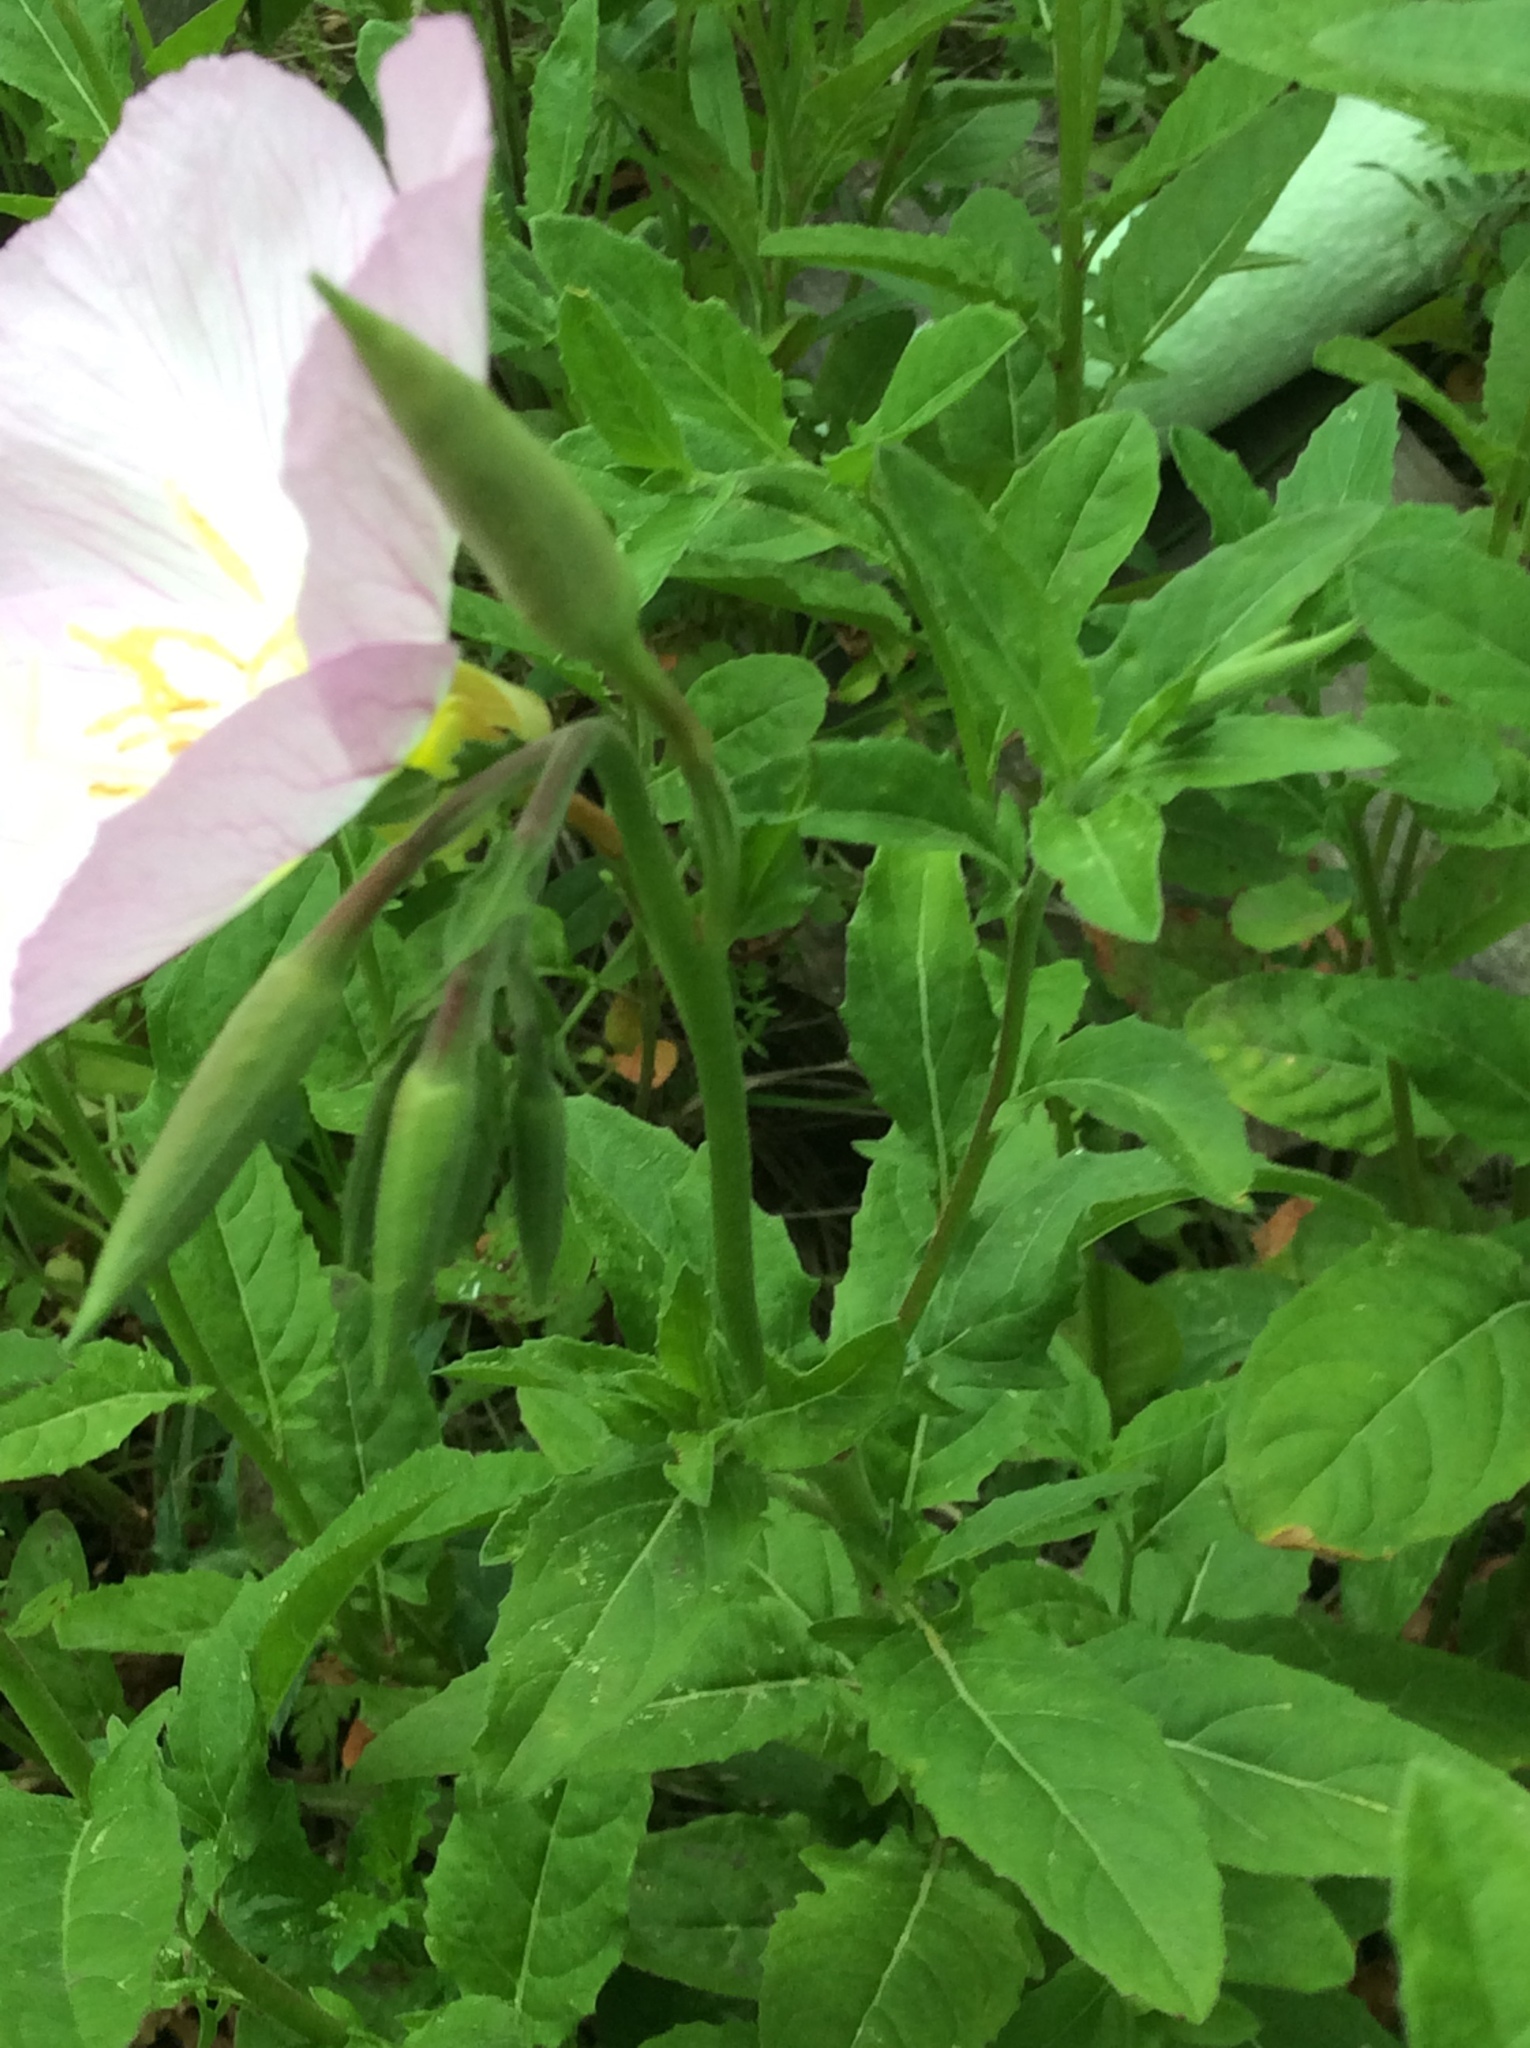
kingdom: Plantae
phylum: Tracheophyta
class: Magnoliopsida
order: Myrtales
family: Onagraceae
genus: Oenothera
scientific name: Oenothera speciosa
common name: White evening-primrose
